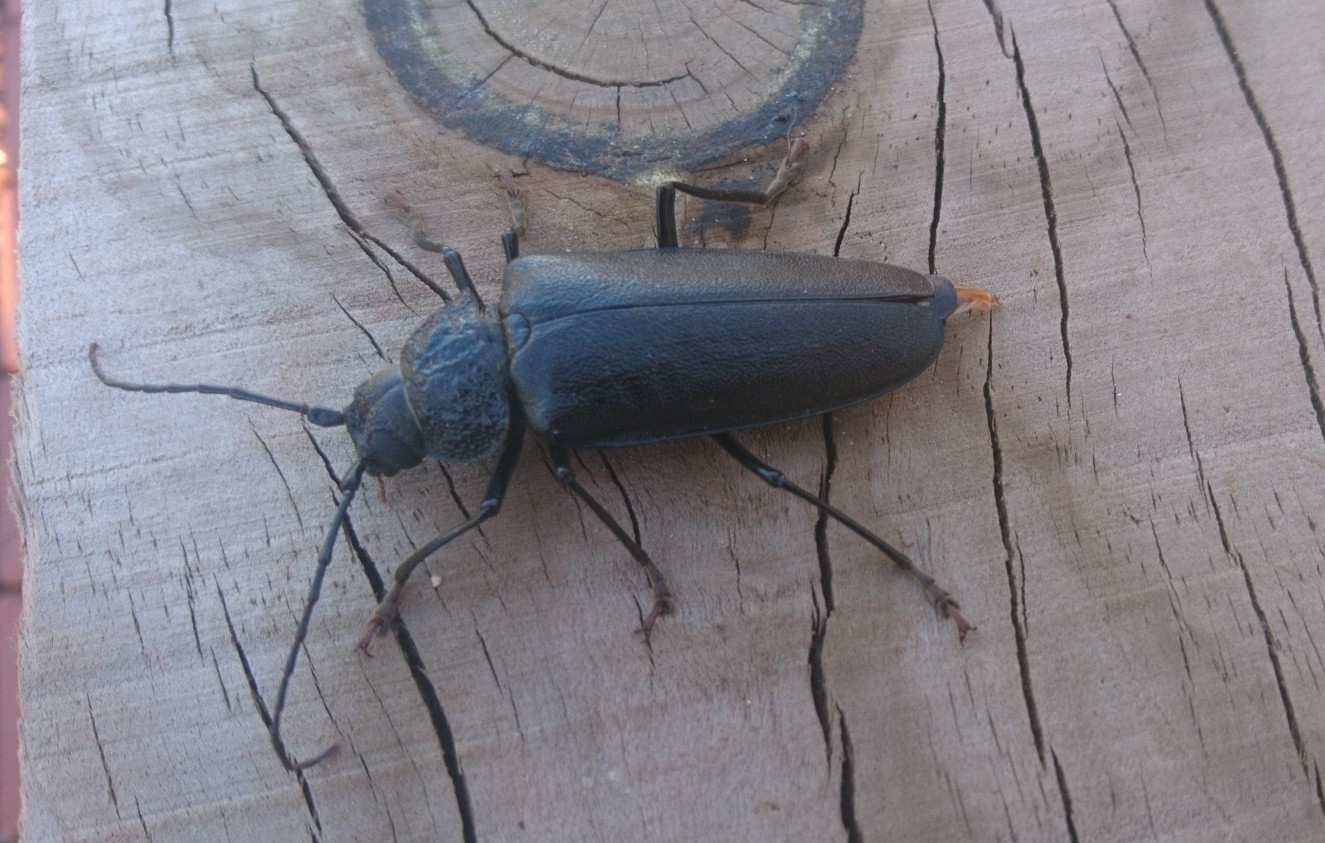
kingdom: Animalia
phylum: Arthropoda
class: Insecta
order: Coleoptera
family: Cerambycidae
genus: Ergates
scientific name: Ergates faber
